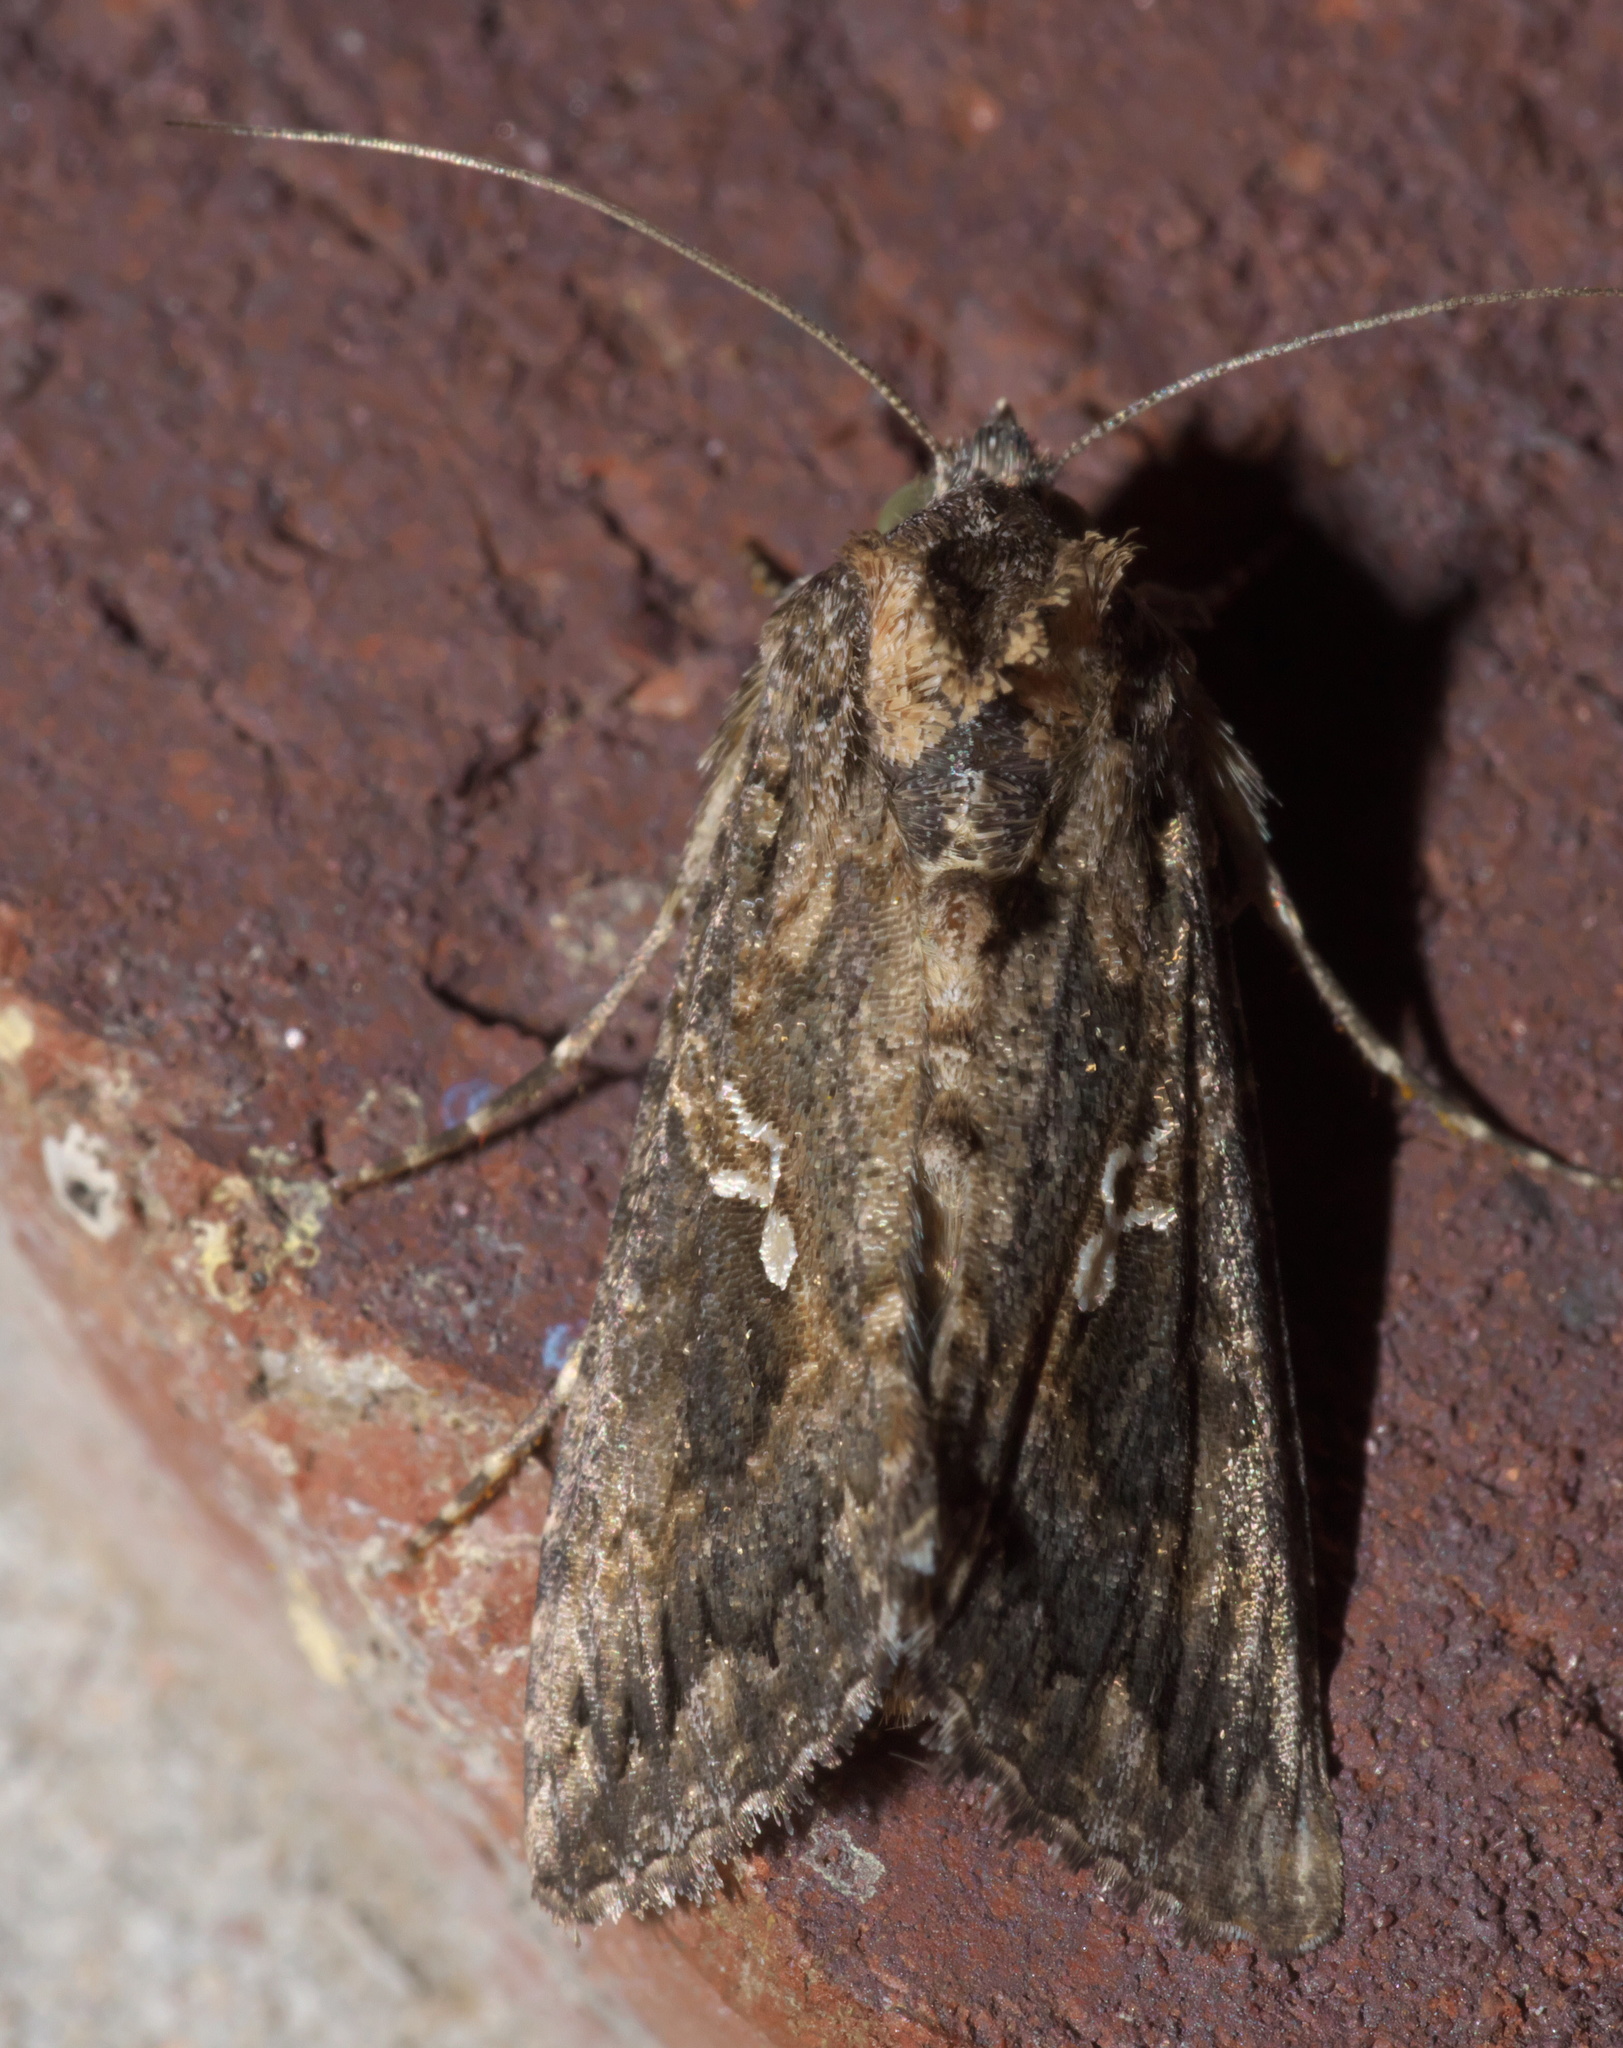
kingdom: Animalia
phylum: Arthropoda
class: Insecta
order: Lepidoptera
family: Noctuidae
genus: Trichoplusia
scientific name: Trichoplusia ni
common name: Ni moth
